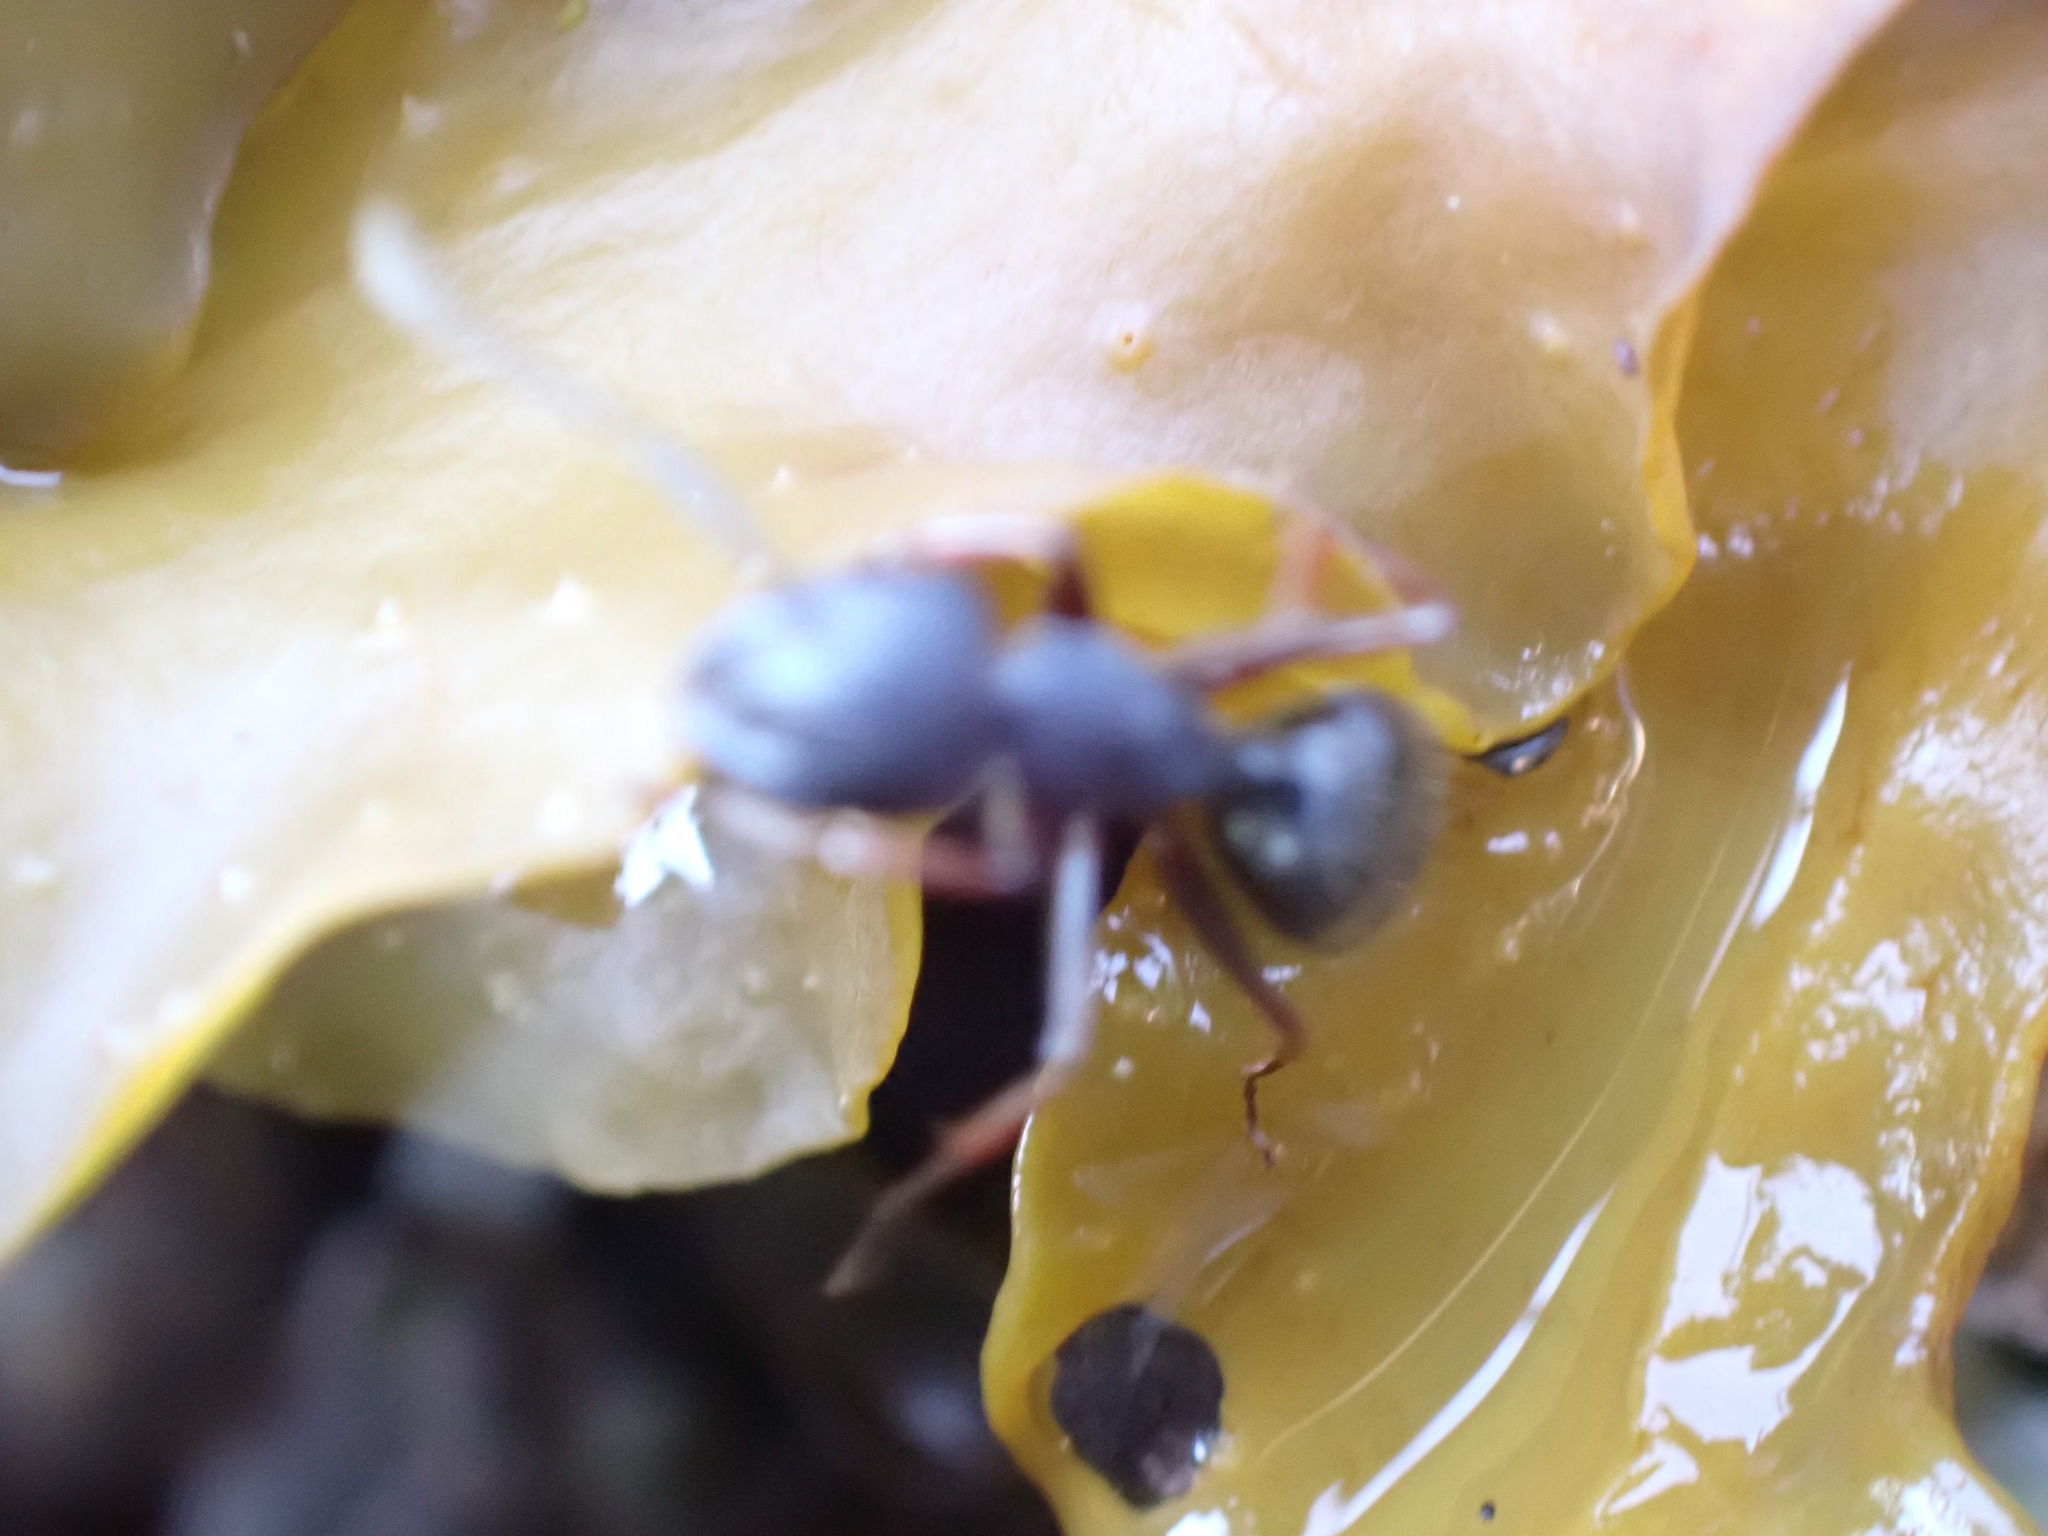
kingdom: Animalia
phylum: Arthropoda
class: Insecta
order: Hymenoptera
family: Formicidae
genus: Camponotus
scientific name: Camponotus modoc
